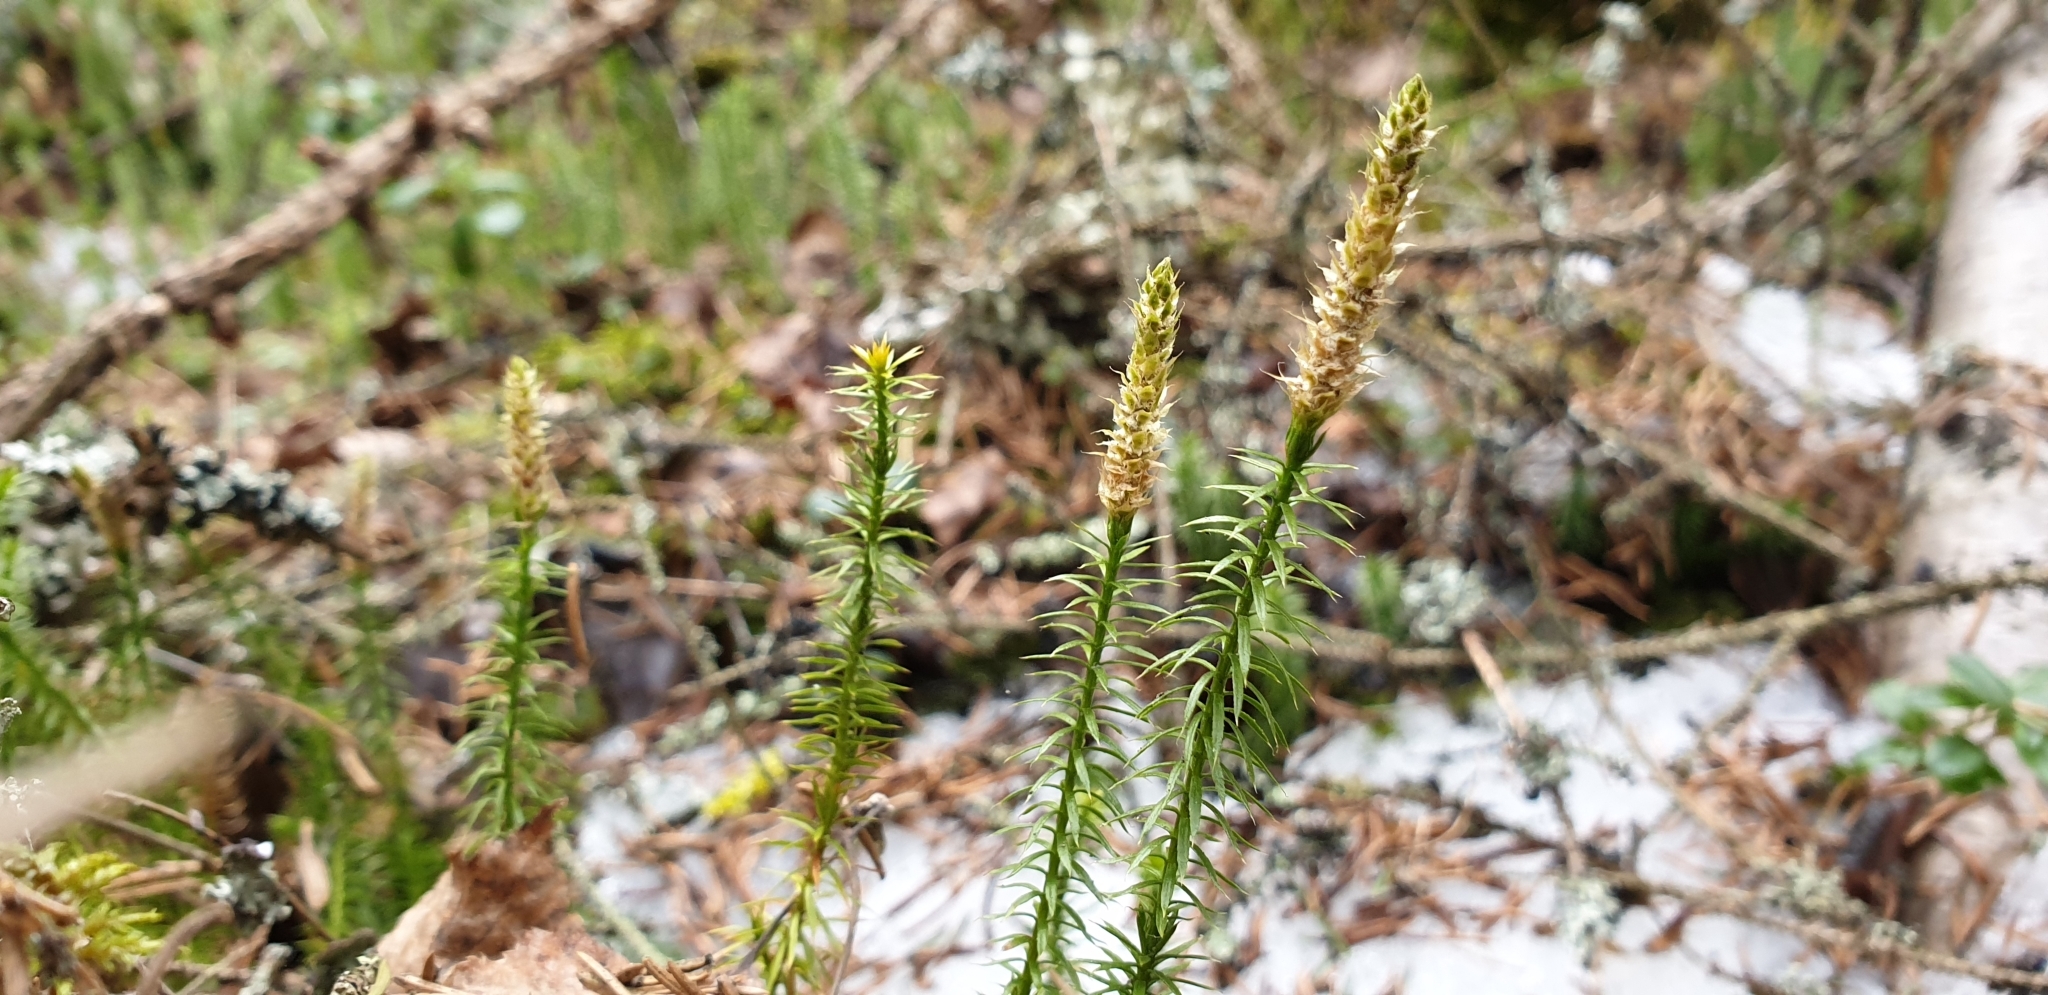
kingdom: Plantae
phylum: Tracheophyta
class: Lycopodiopsida
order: Lycopodiales
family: Lycopodiaceae
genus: Spinulum
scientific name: Spinulum annotinum
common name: Interrupted club-moss
